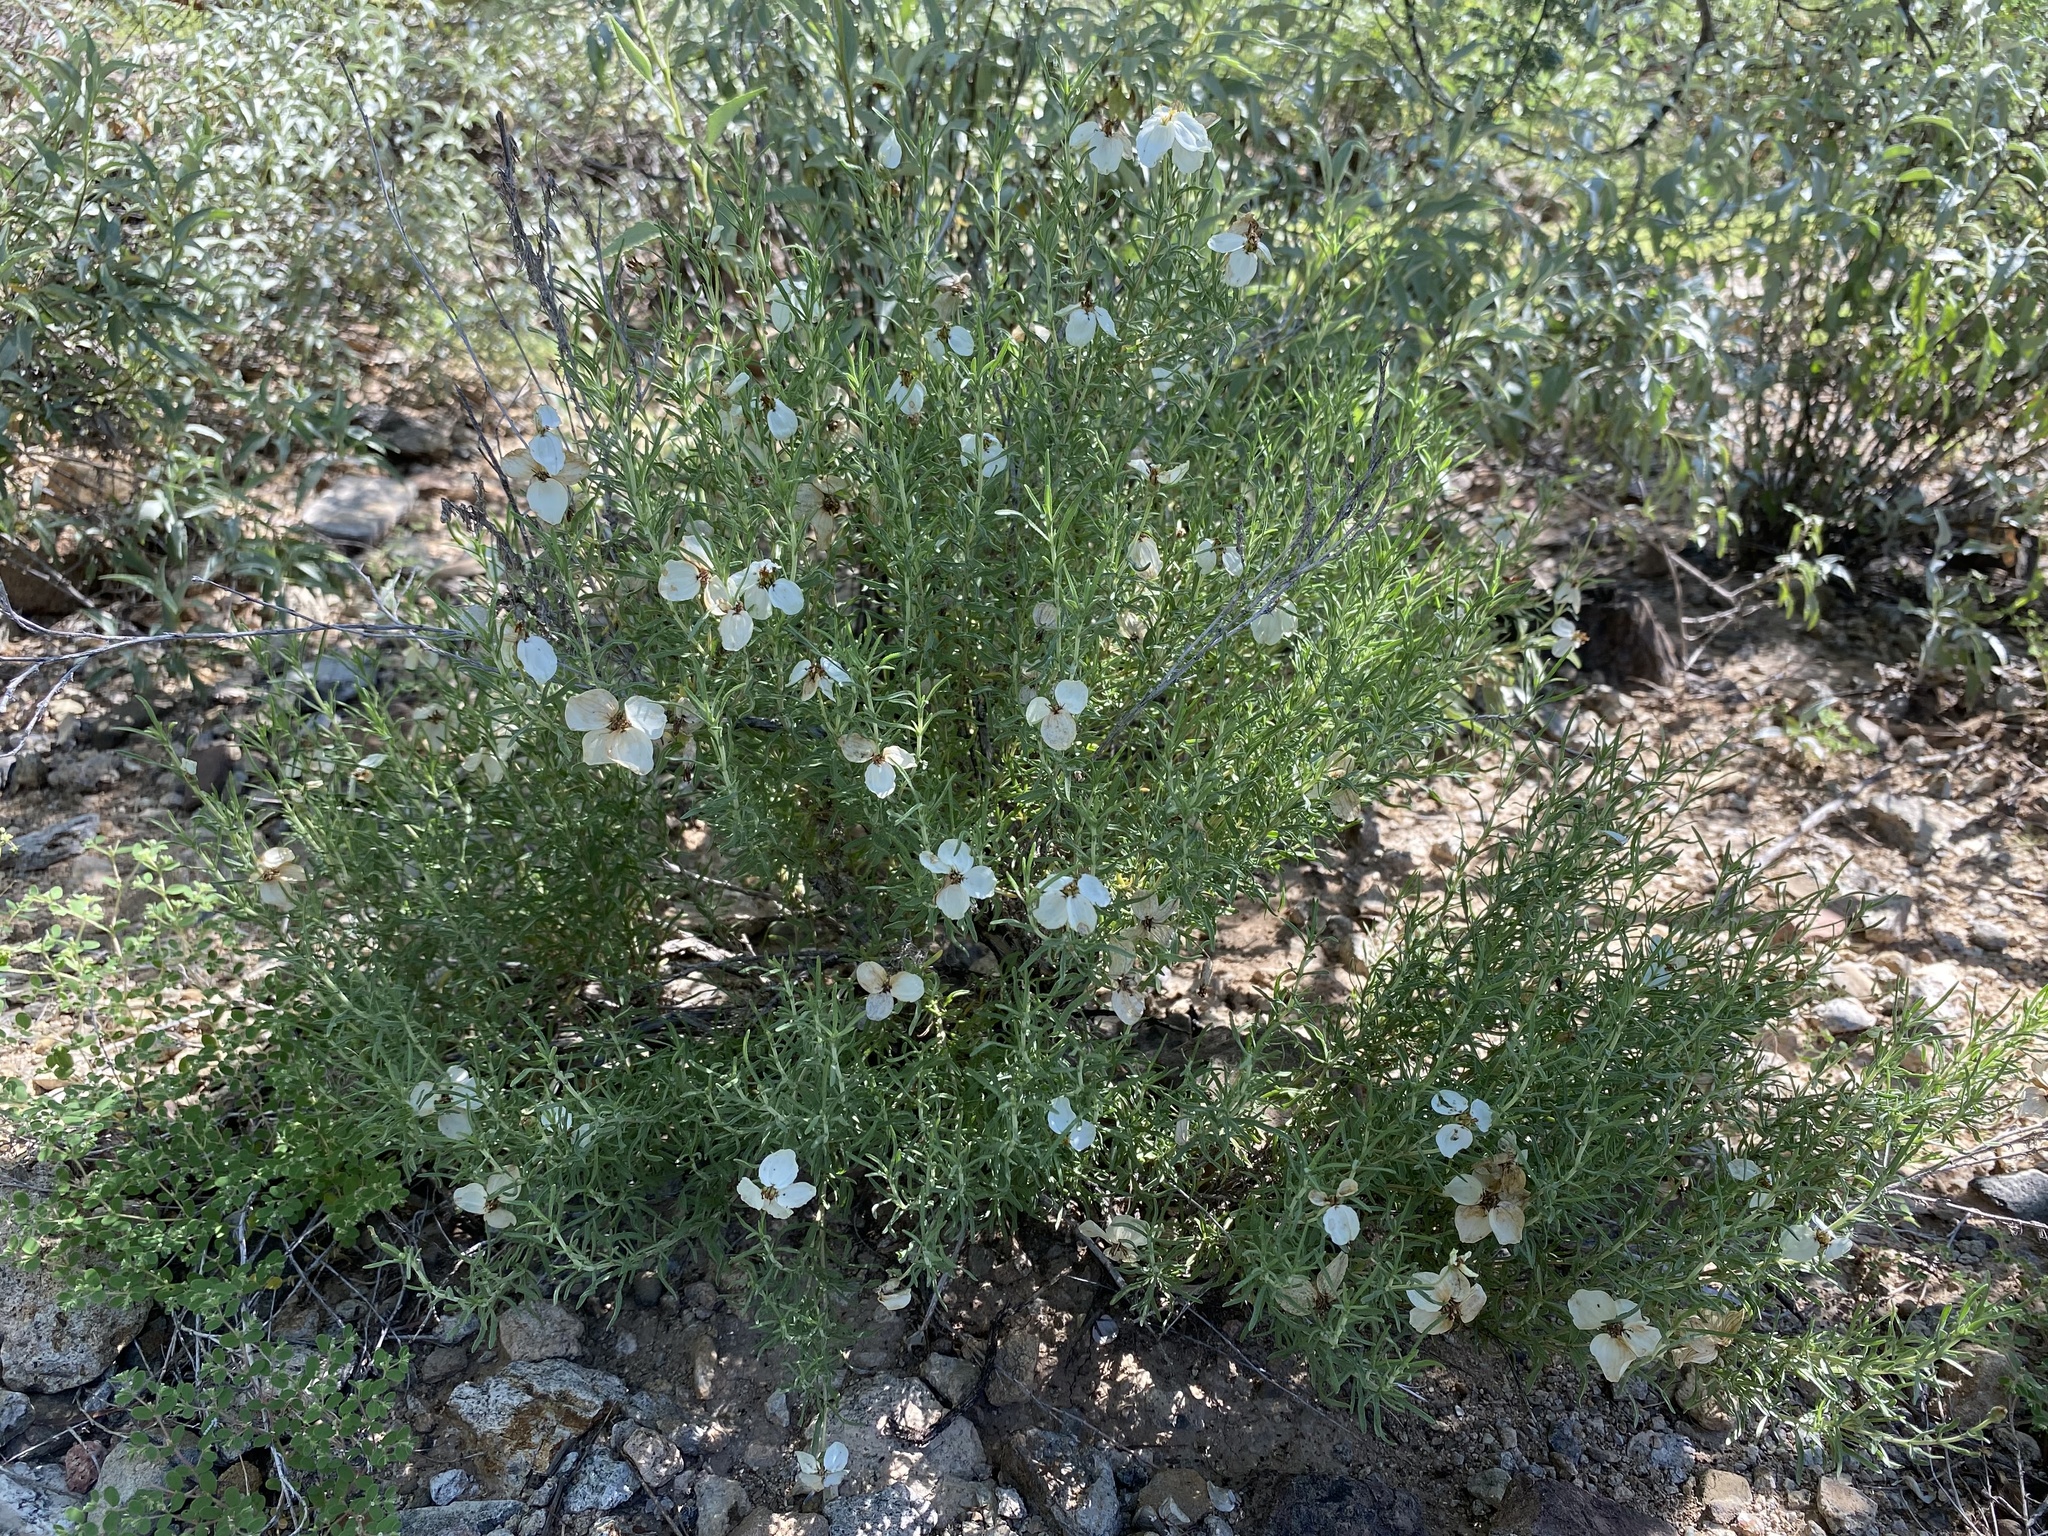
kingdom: Plantae
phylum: Tracheophyta
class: Magnoliopsida
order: Asterales
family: Asteraceae
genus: Zinnia
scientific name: Zinnia acerosa
